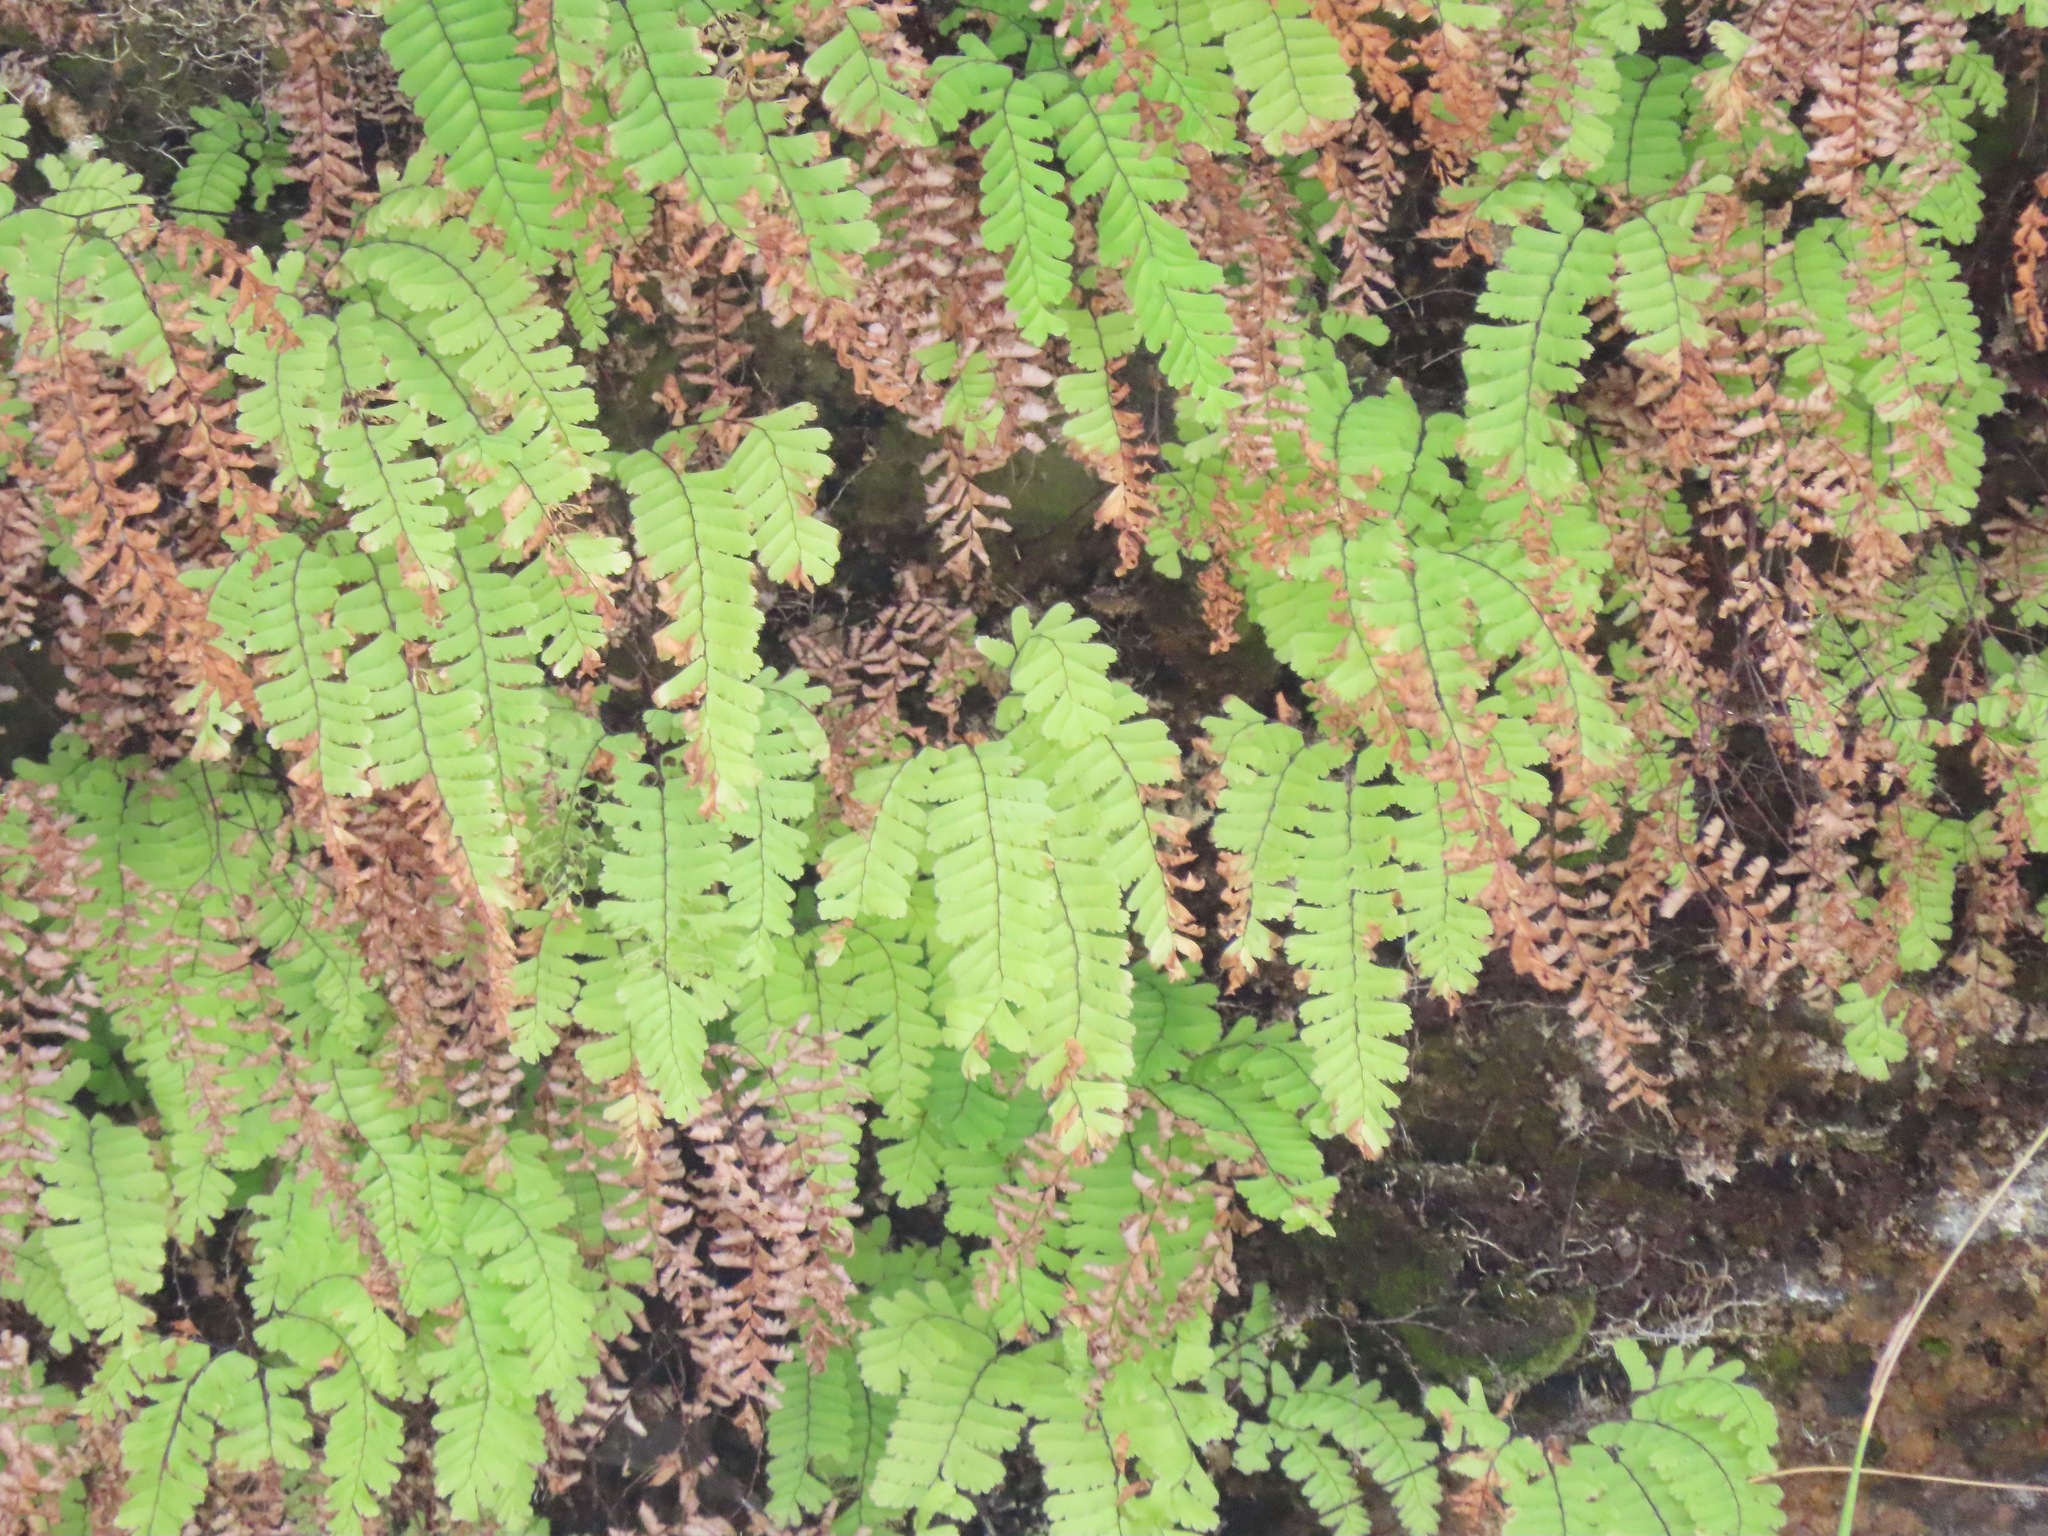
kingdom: Plantae
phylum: Tracheophyta
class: Polypodiopsida
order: Polypodiales
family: Pteridaceae
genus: Adiantum
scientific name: Adiantum aleuticum
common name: Aleutian maidenhair fern
